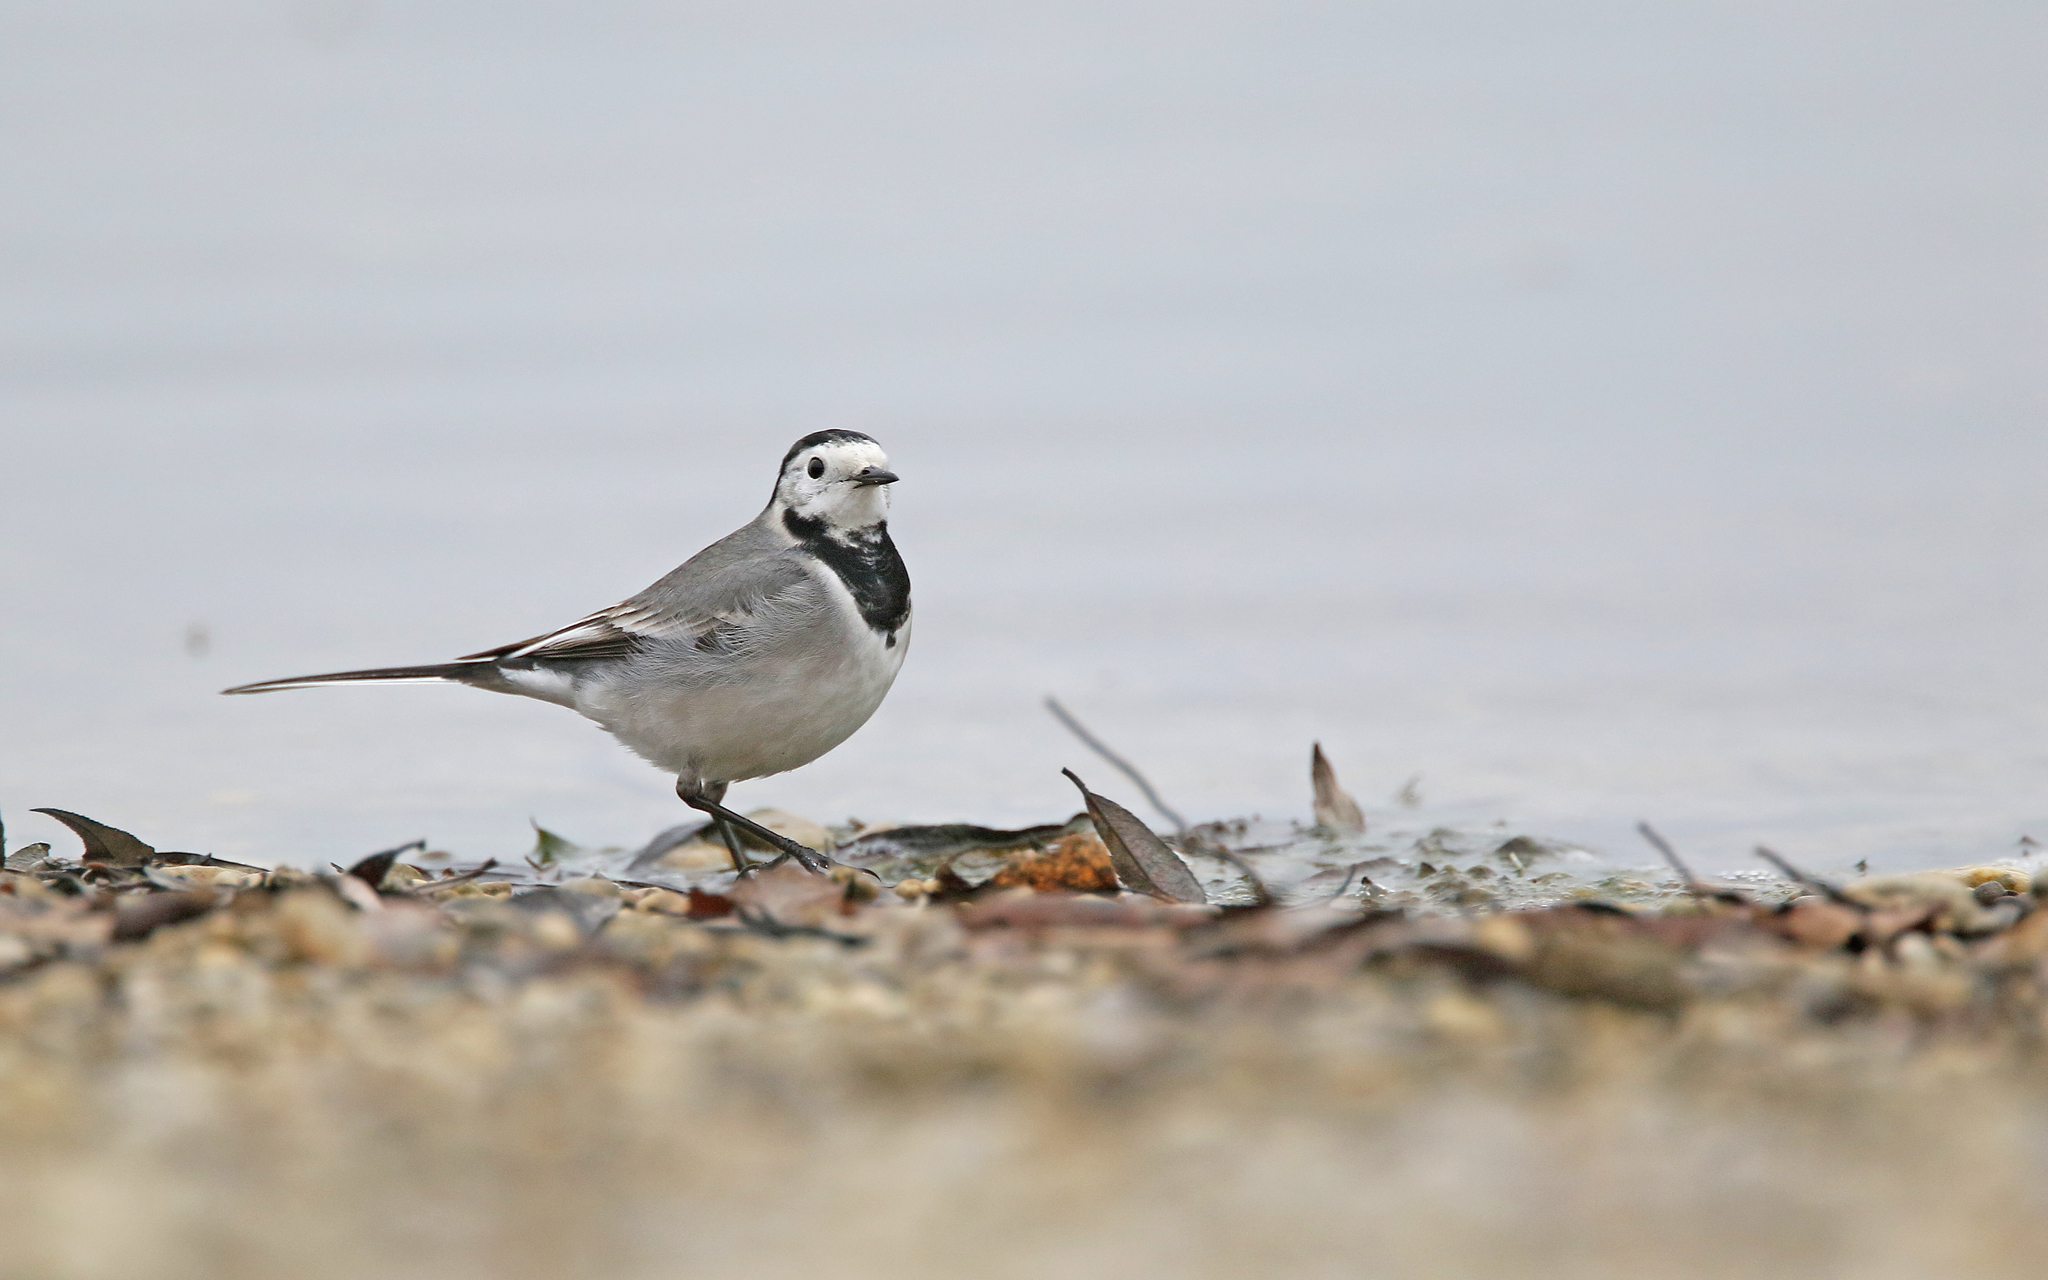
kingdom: Animalia
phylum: Chordata
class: Aves
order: Passeriformes
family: Motacillidae
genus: Motacilla
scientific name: Motacilla alba
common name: White wagtail
